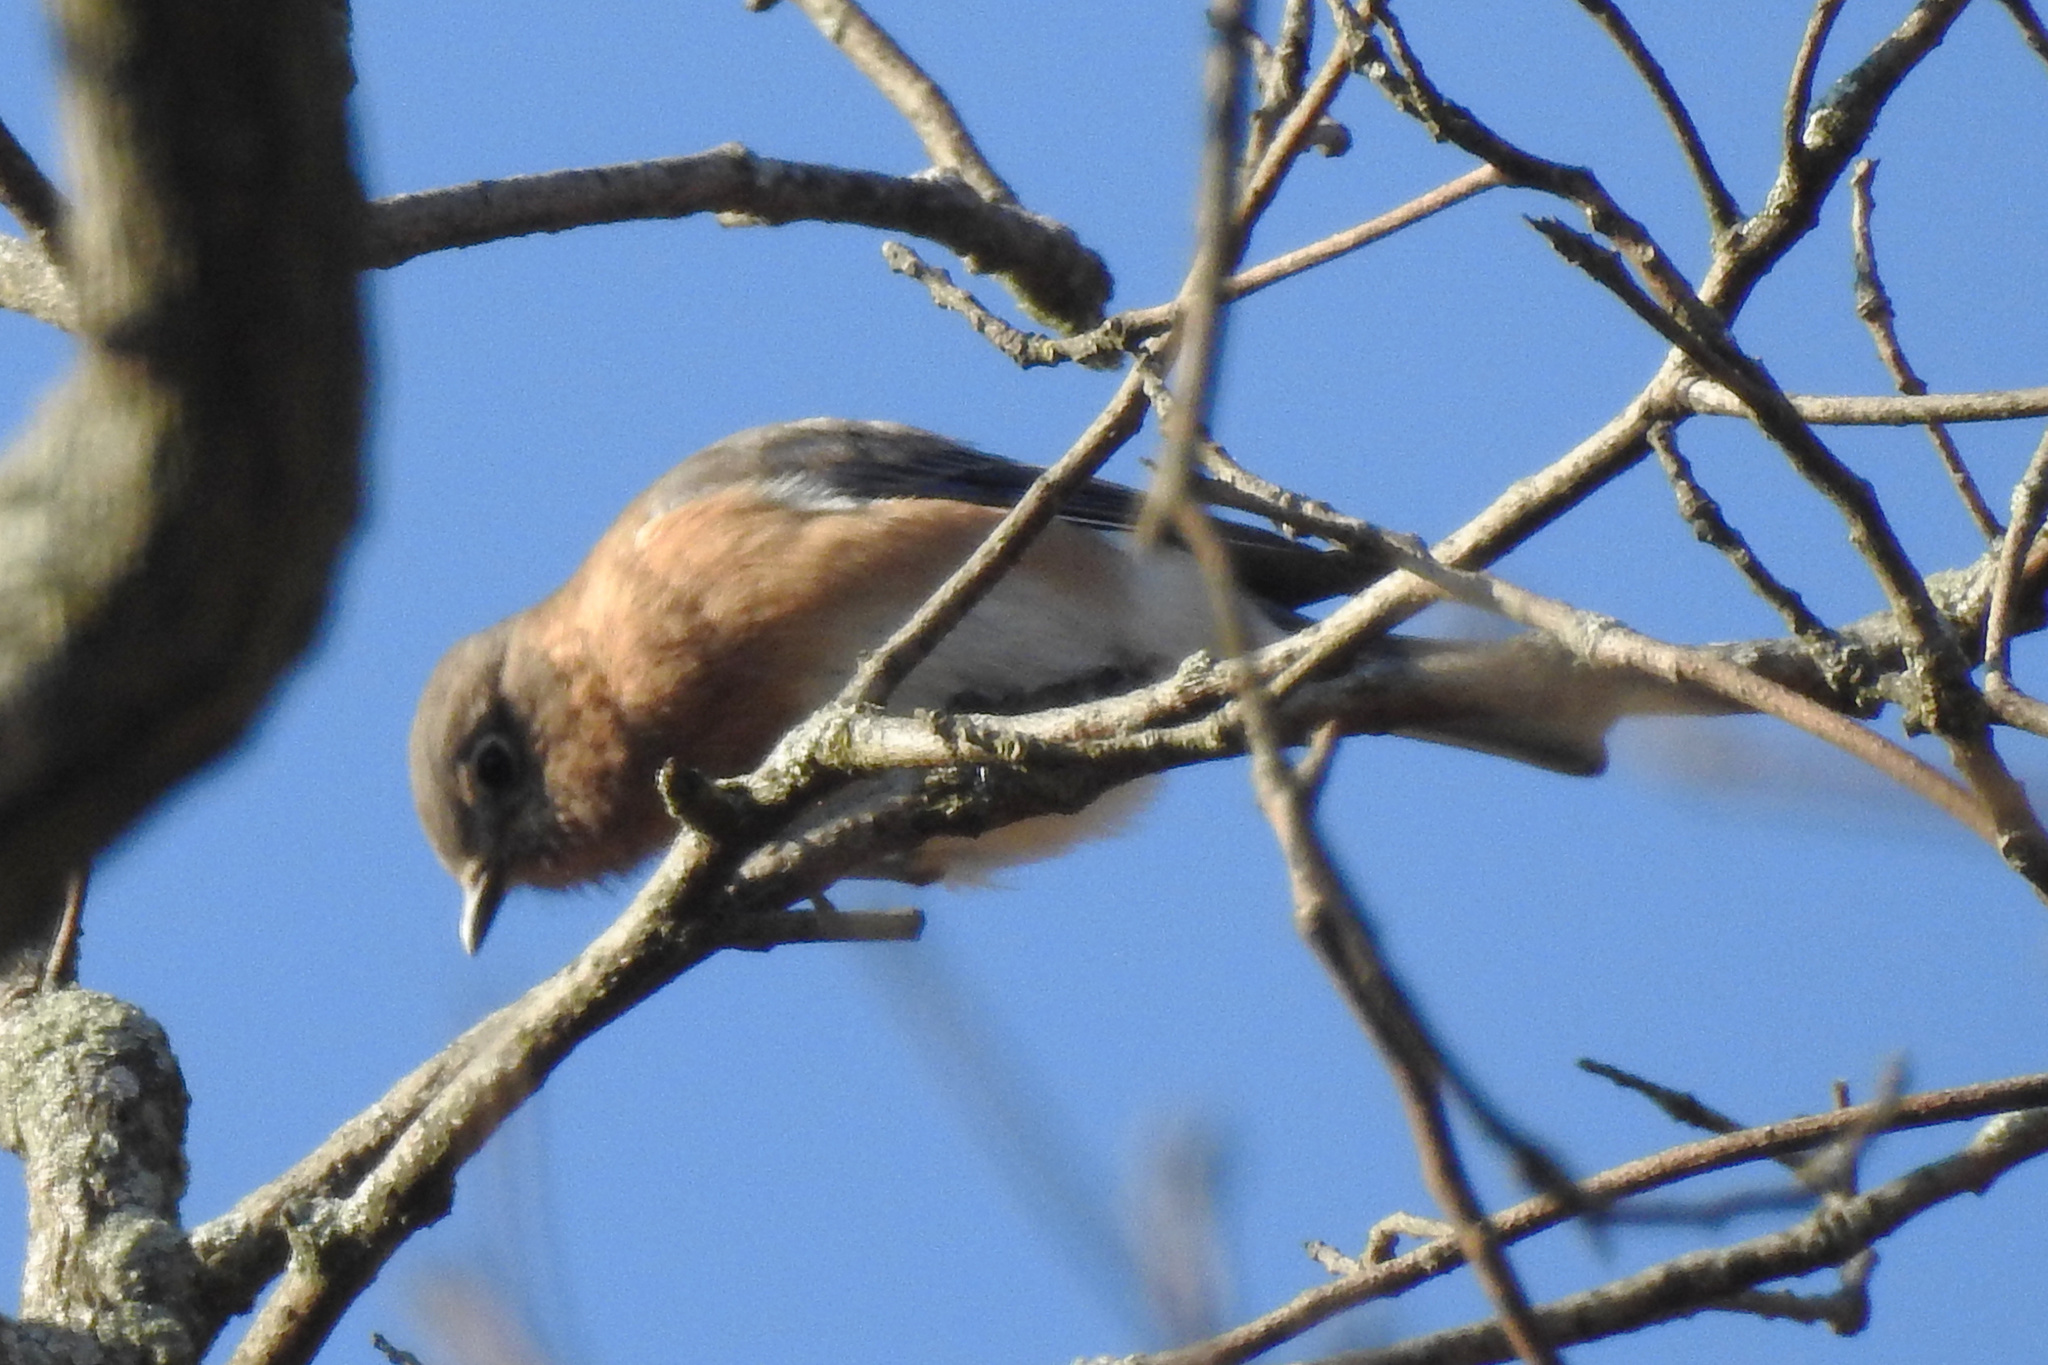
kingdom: Animalia
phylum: Chordata
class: Aves
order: Passeriformes
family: Turdidae
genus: Sialia
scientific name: Sialia sialis
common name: Eastern bluebird
